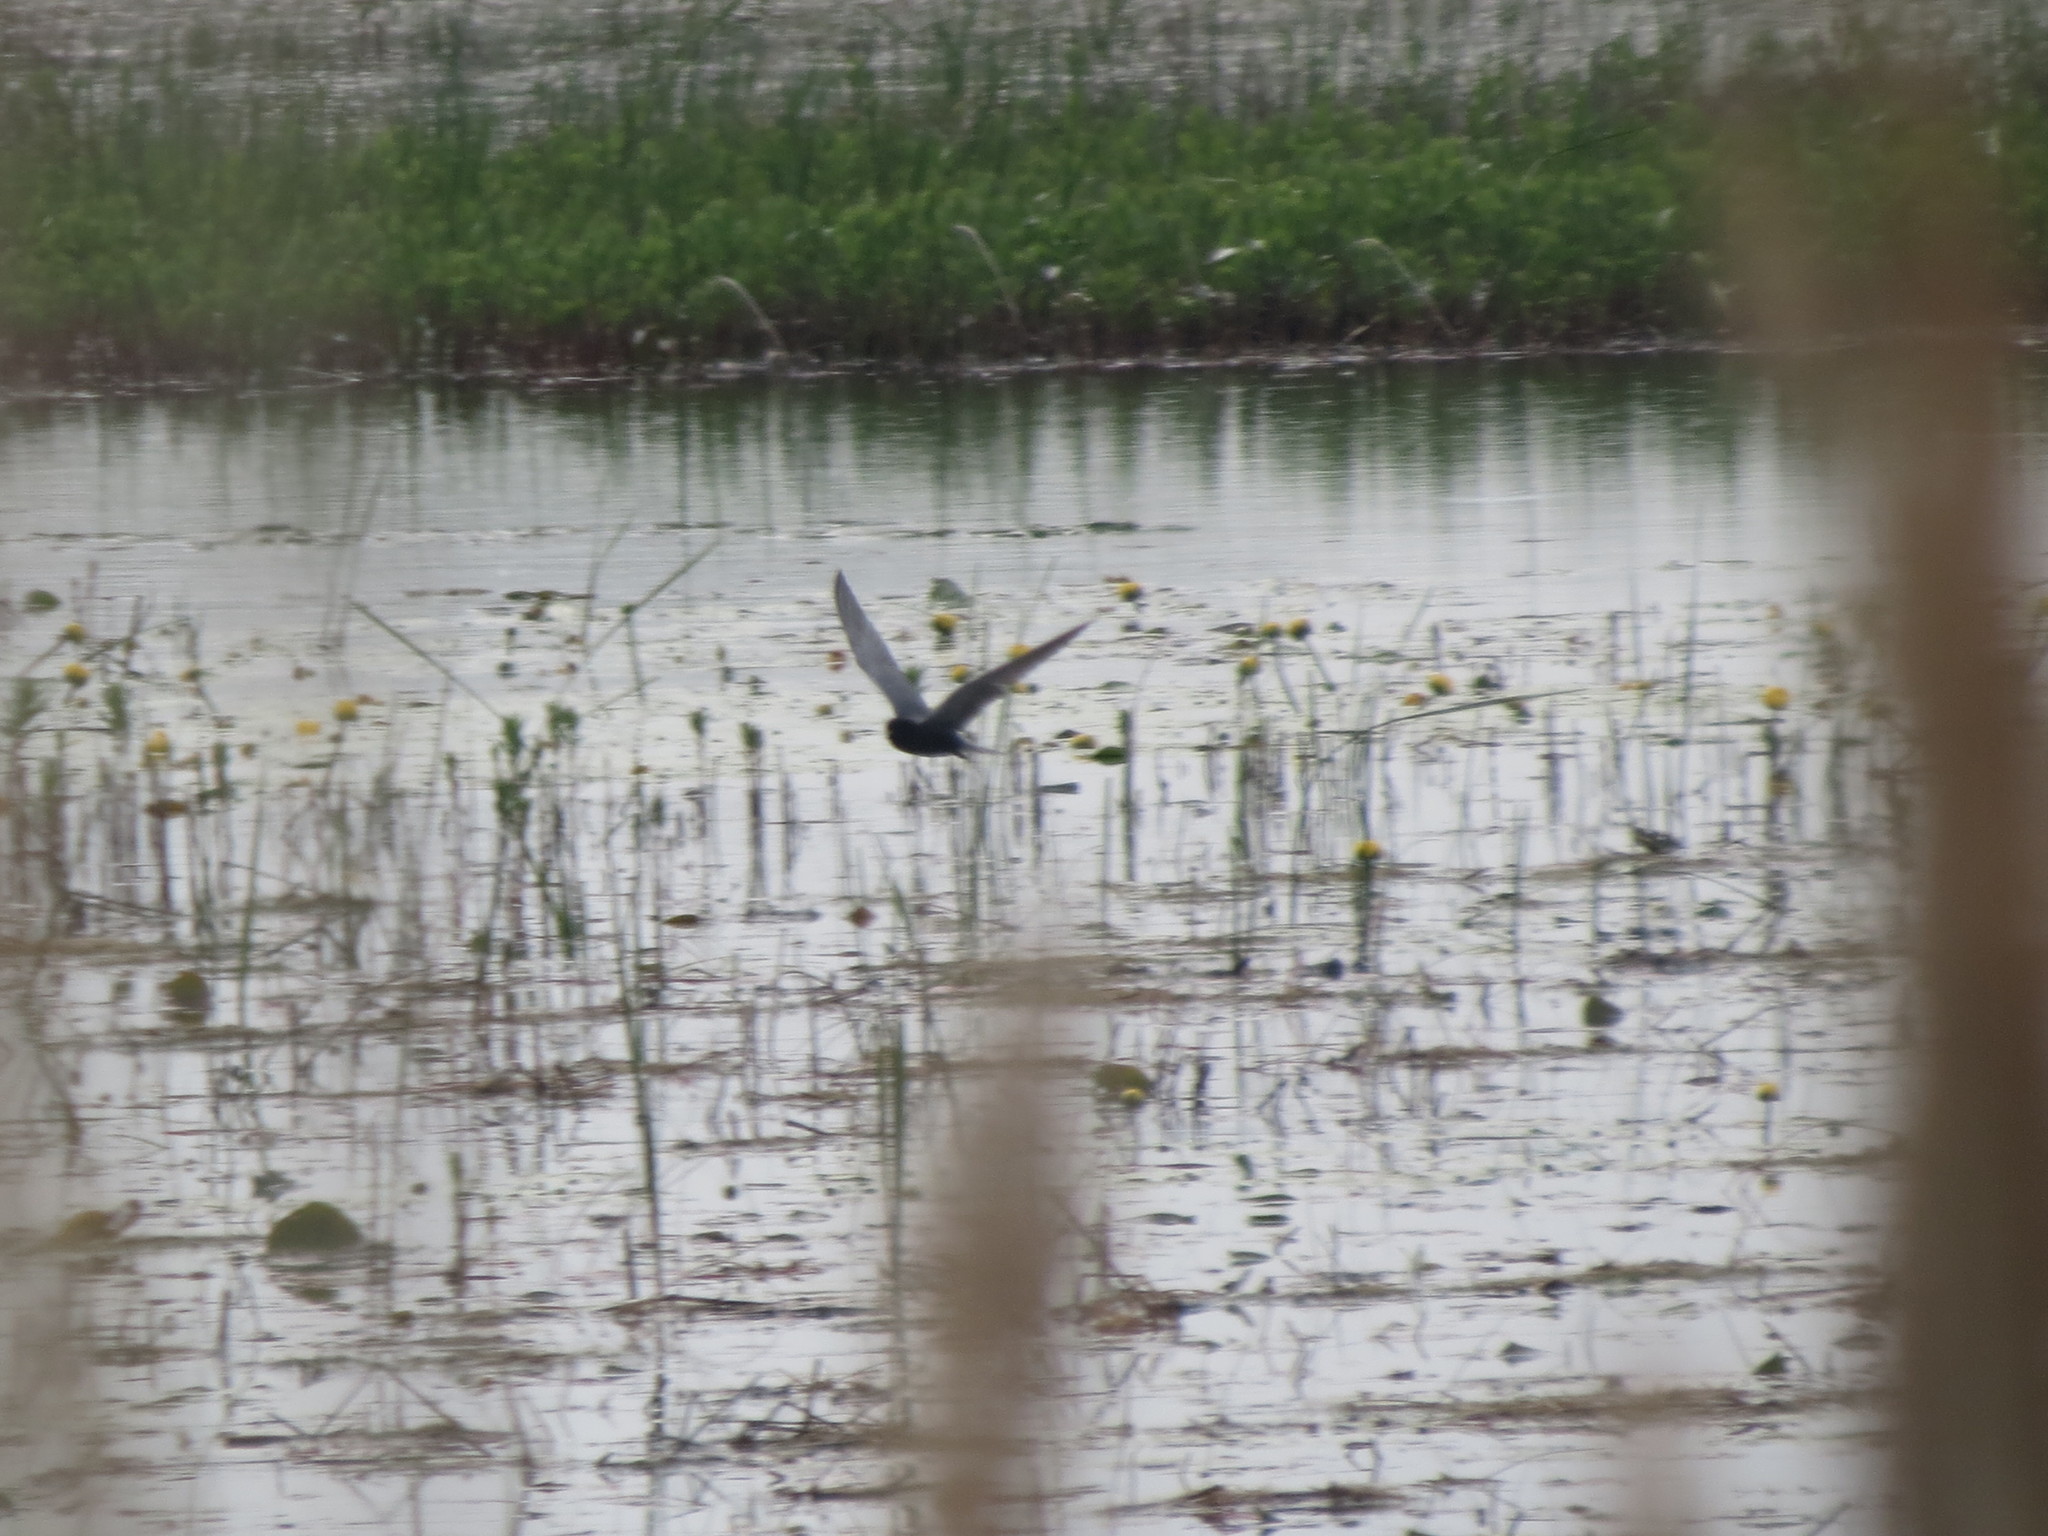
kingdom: Animalia
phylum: Chordata
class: Aves
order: Charadriiformes
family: Laridae
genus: Chlidonias
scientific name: Chlidonias niger
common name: Black tern
